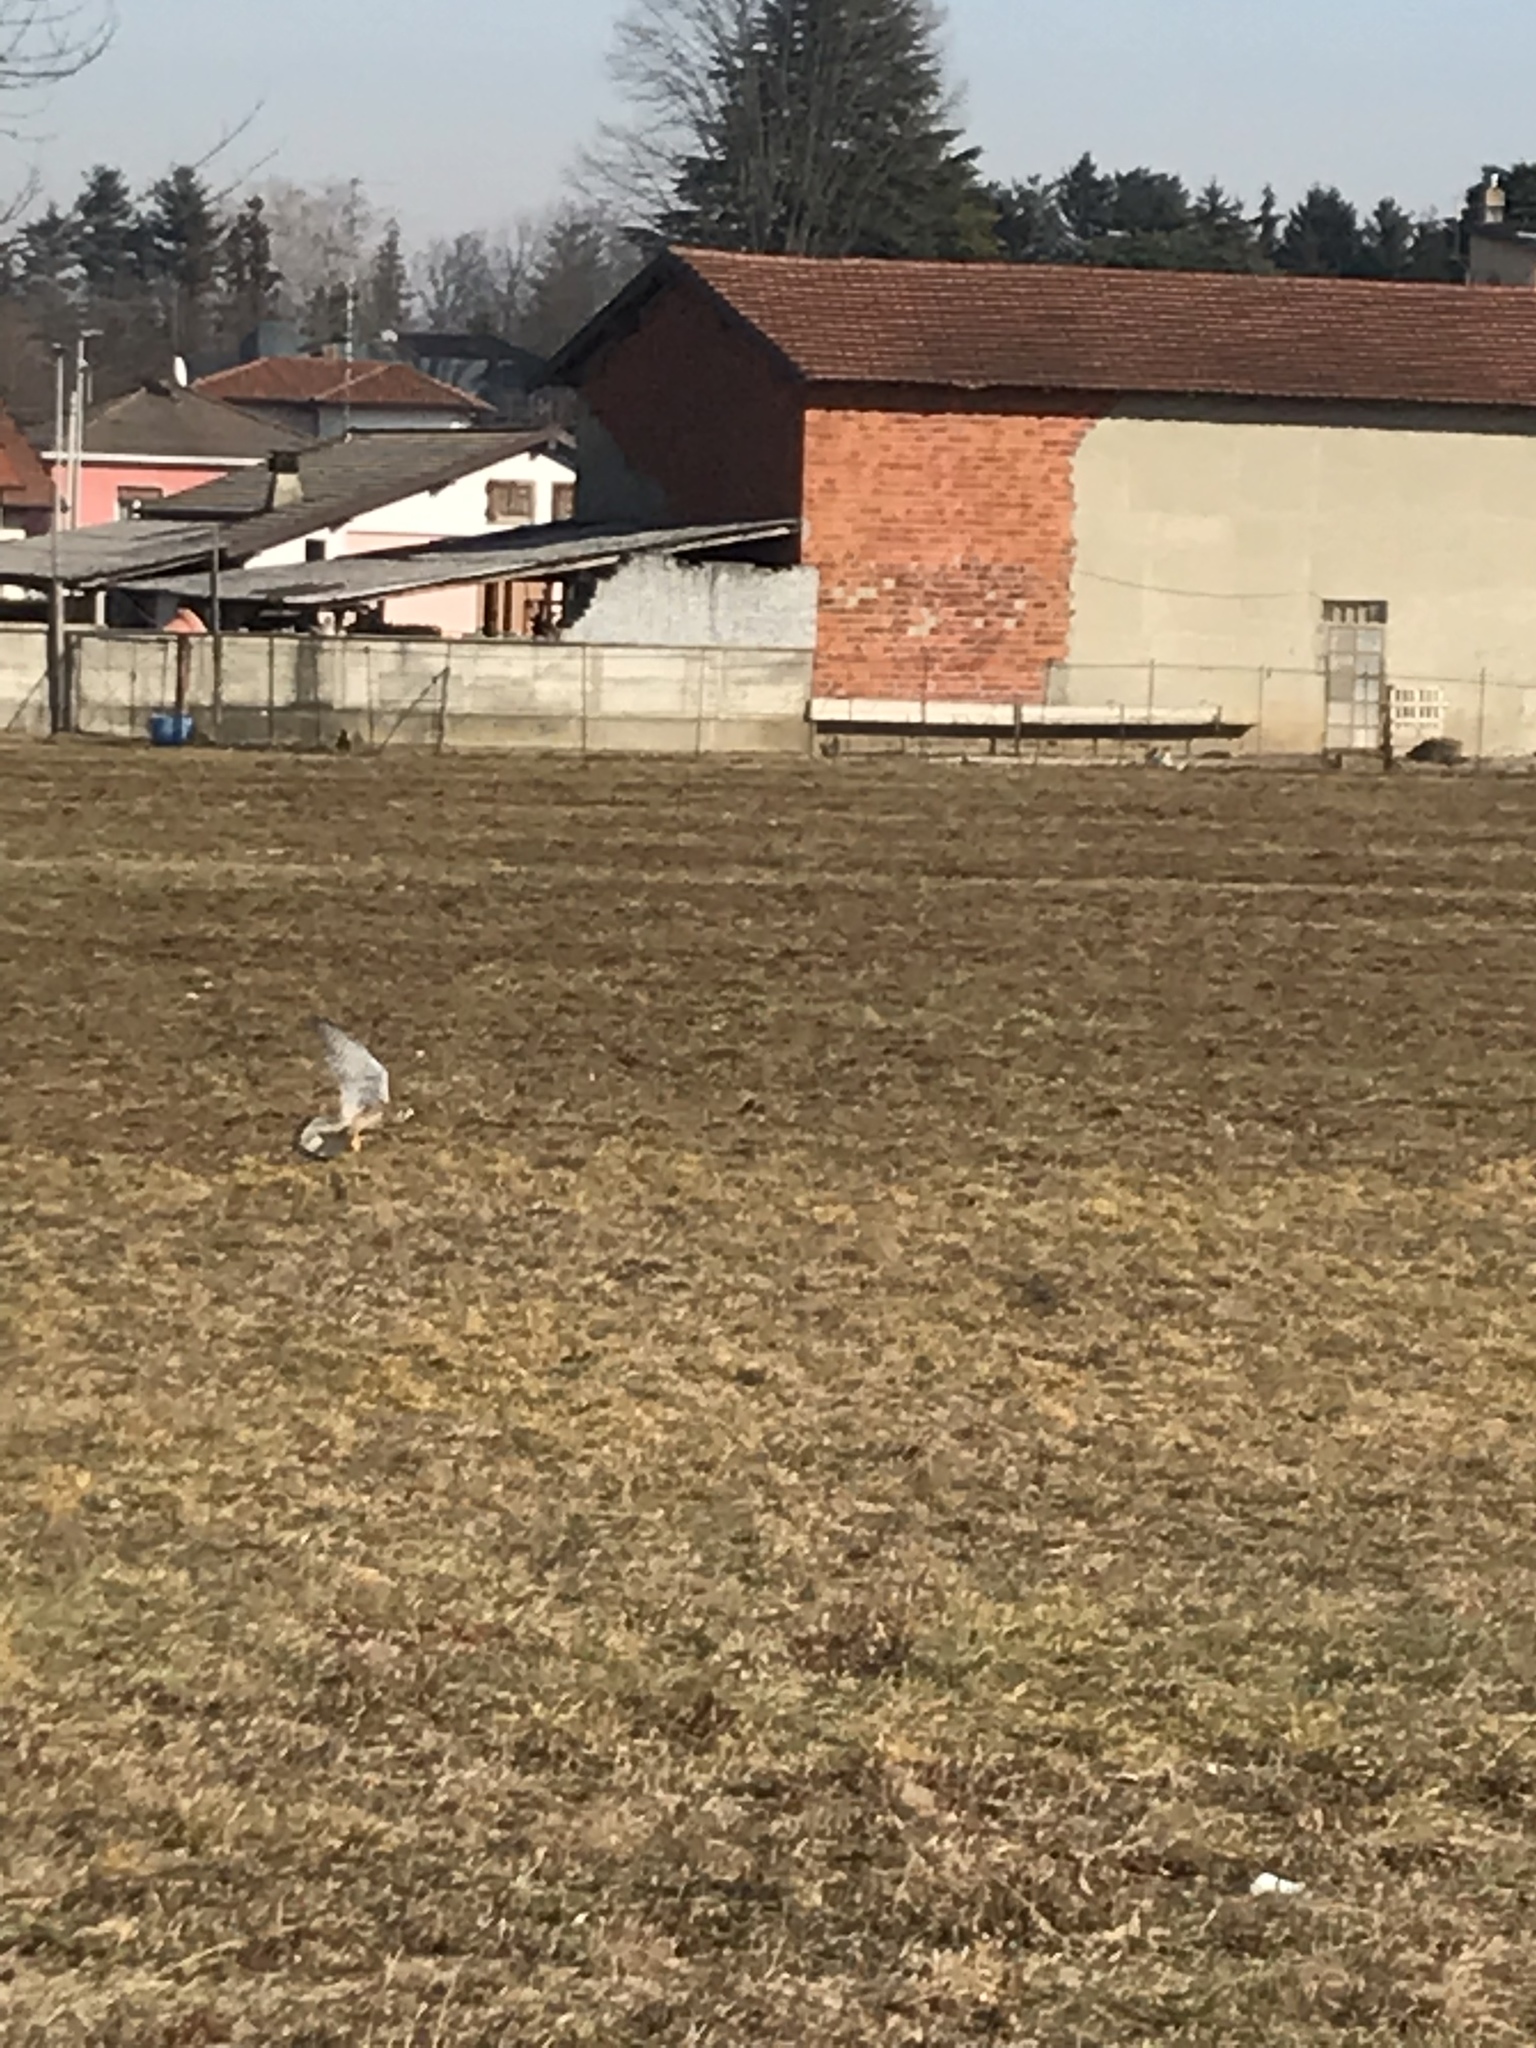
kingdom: Animalia
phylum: Chordata
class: Aves
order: Falconiformes
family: Falconidae
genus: Falco
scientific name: Falco tinnunculus
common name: Common kestrel
